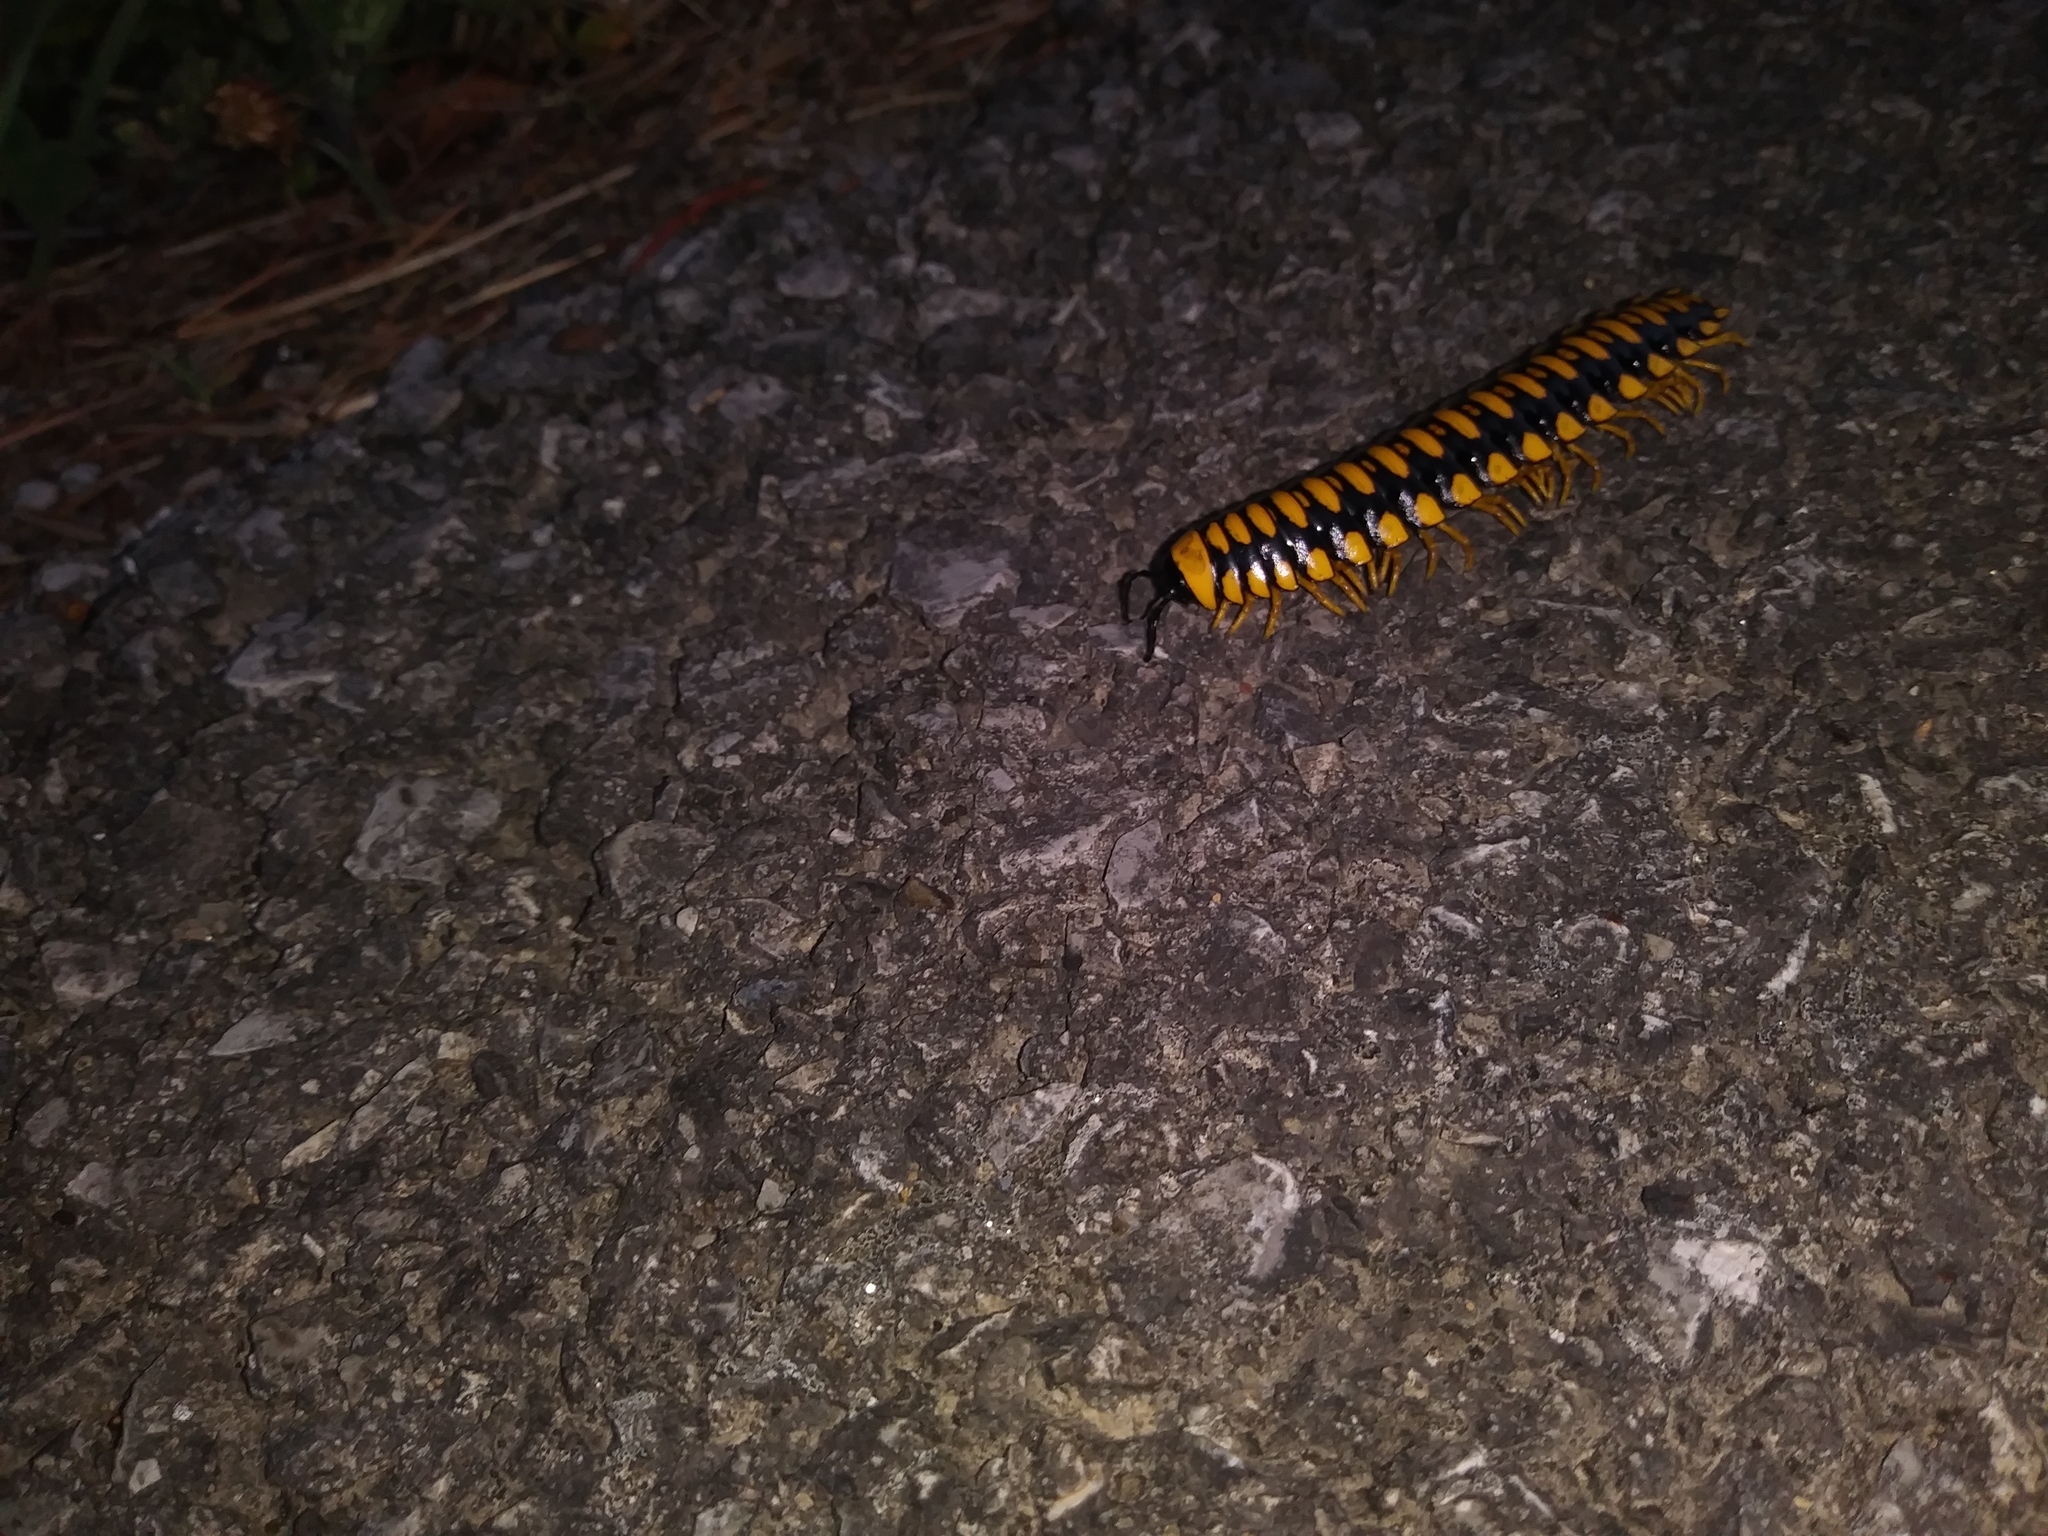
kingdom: Animalia
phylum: Arthropoda
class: Diplopoda
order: Polydesmida
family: Xystodesmidae
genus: Apheloria
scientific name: Apheloria polychroma
